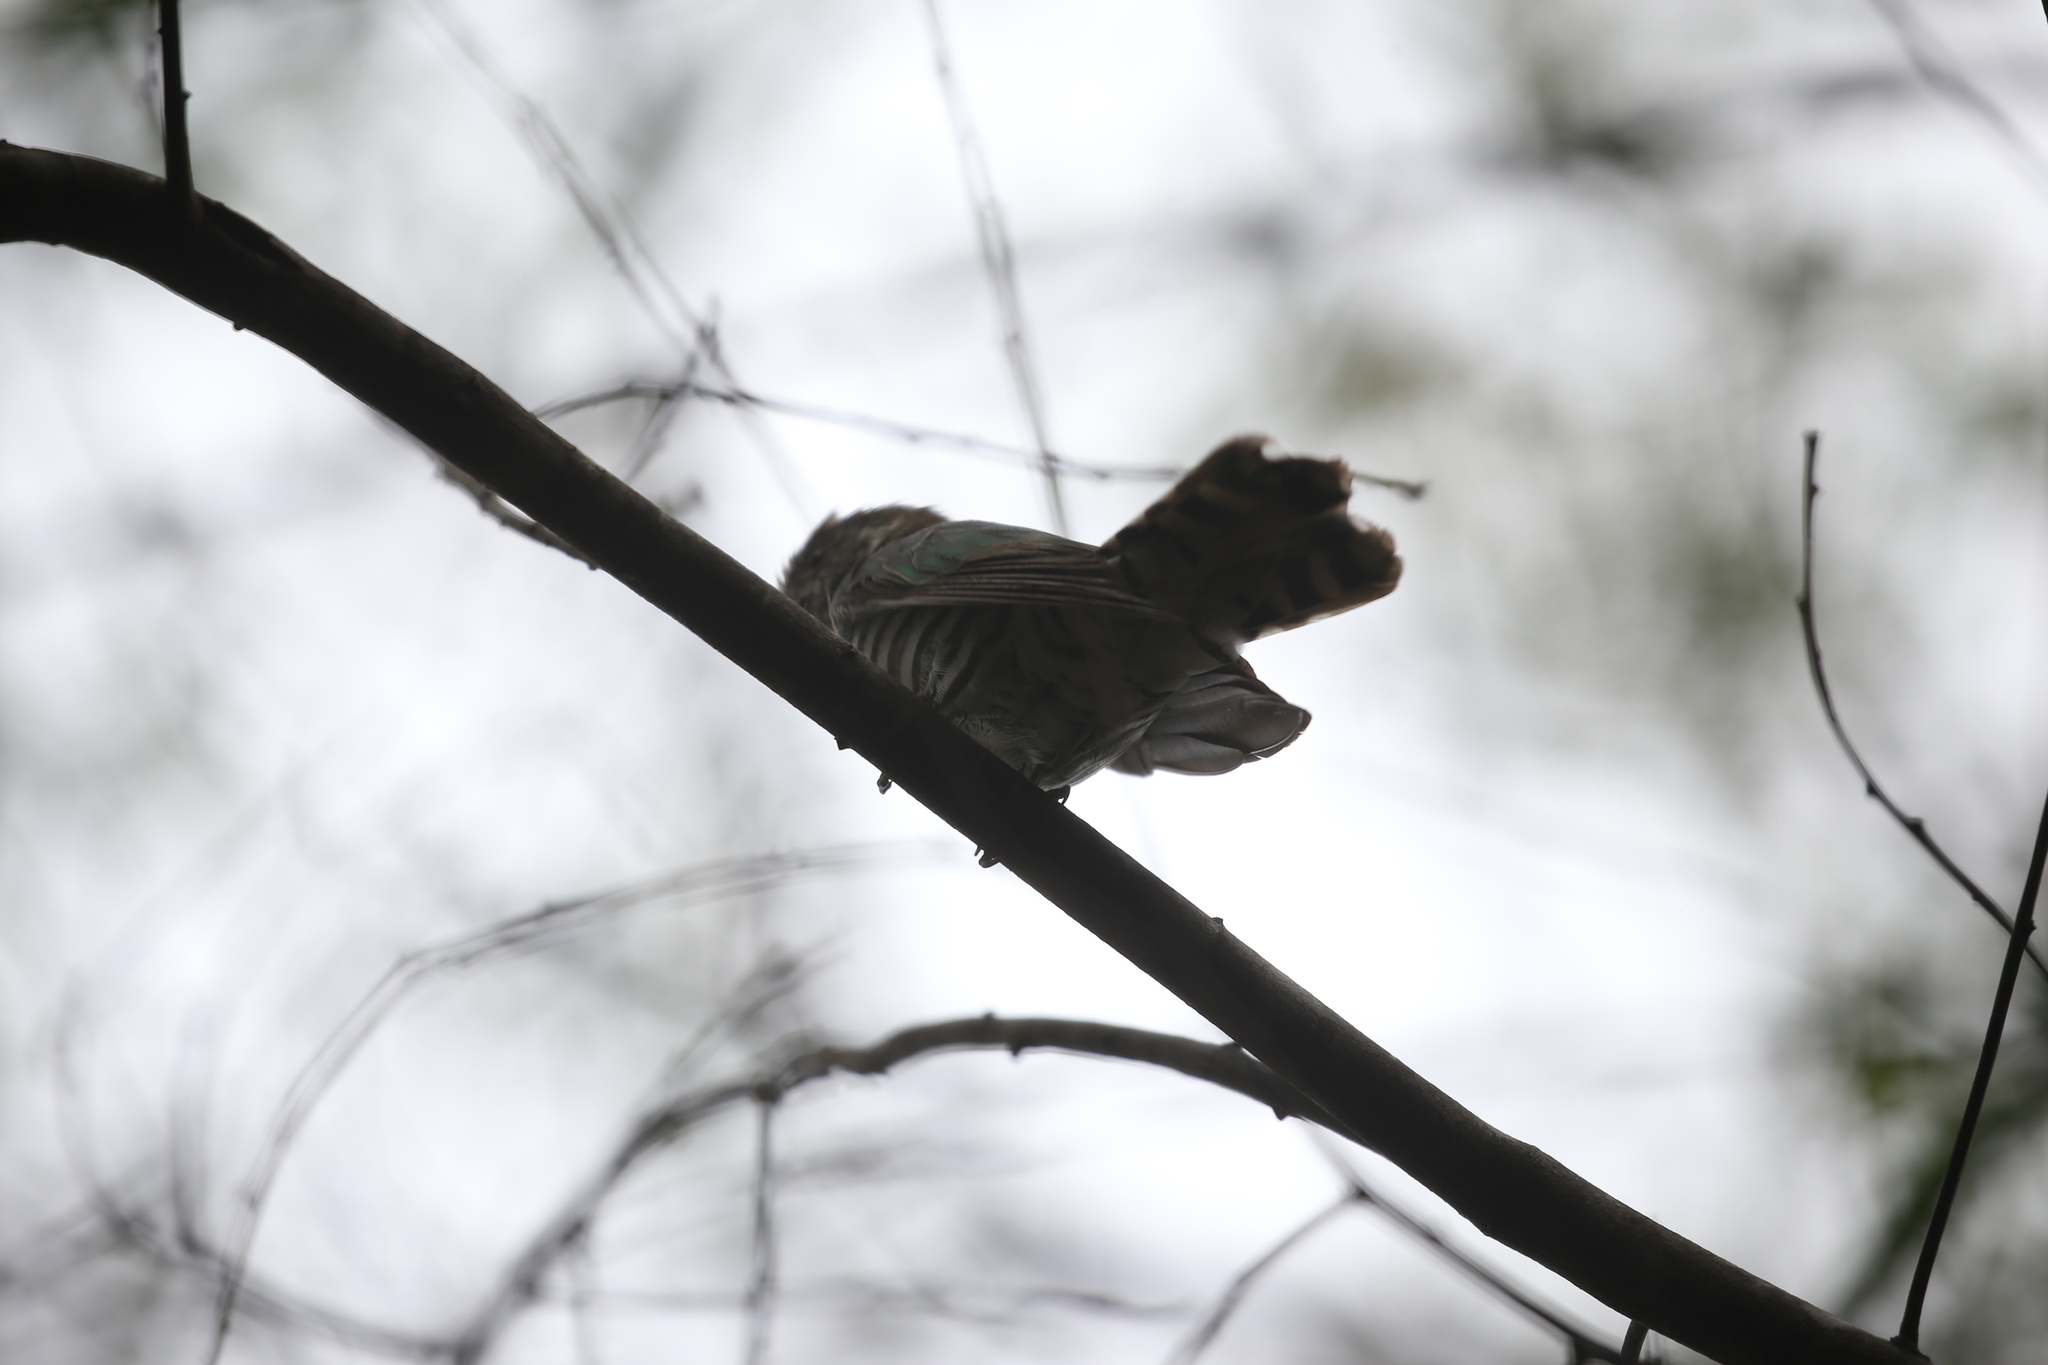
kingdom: Animalia
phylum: Chordata
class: Aves
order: Cuculiformes
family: Cuculidae
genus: Chrysococcyx
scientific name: Chrysococcyx lucidus
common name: Shining bronze cuckoo
